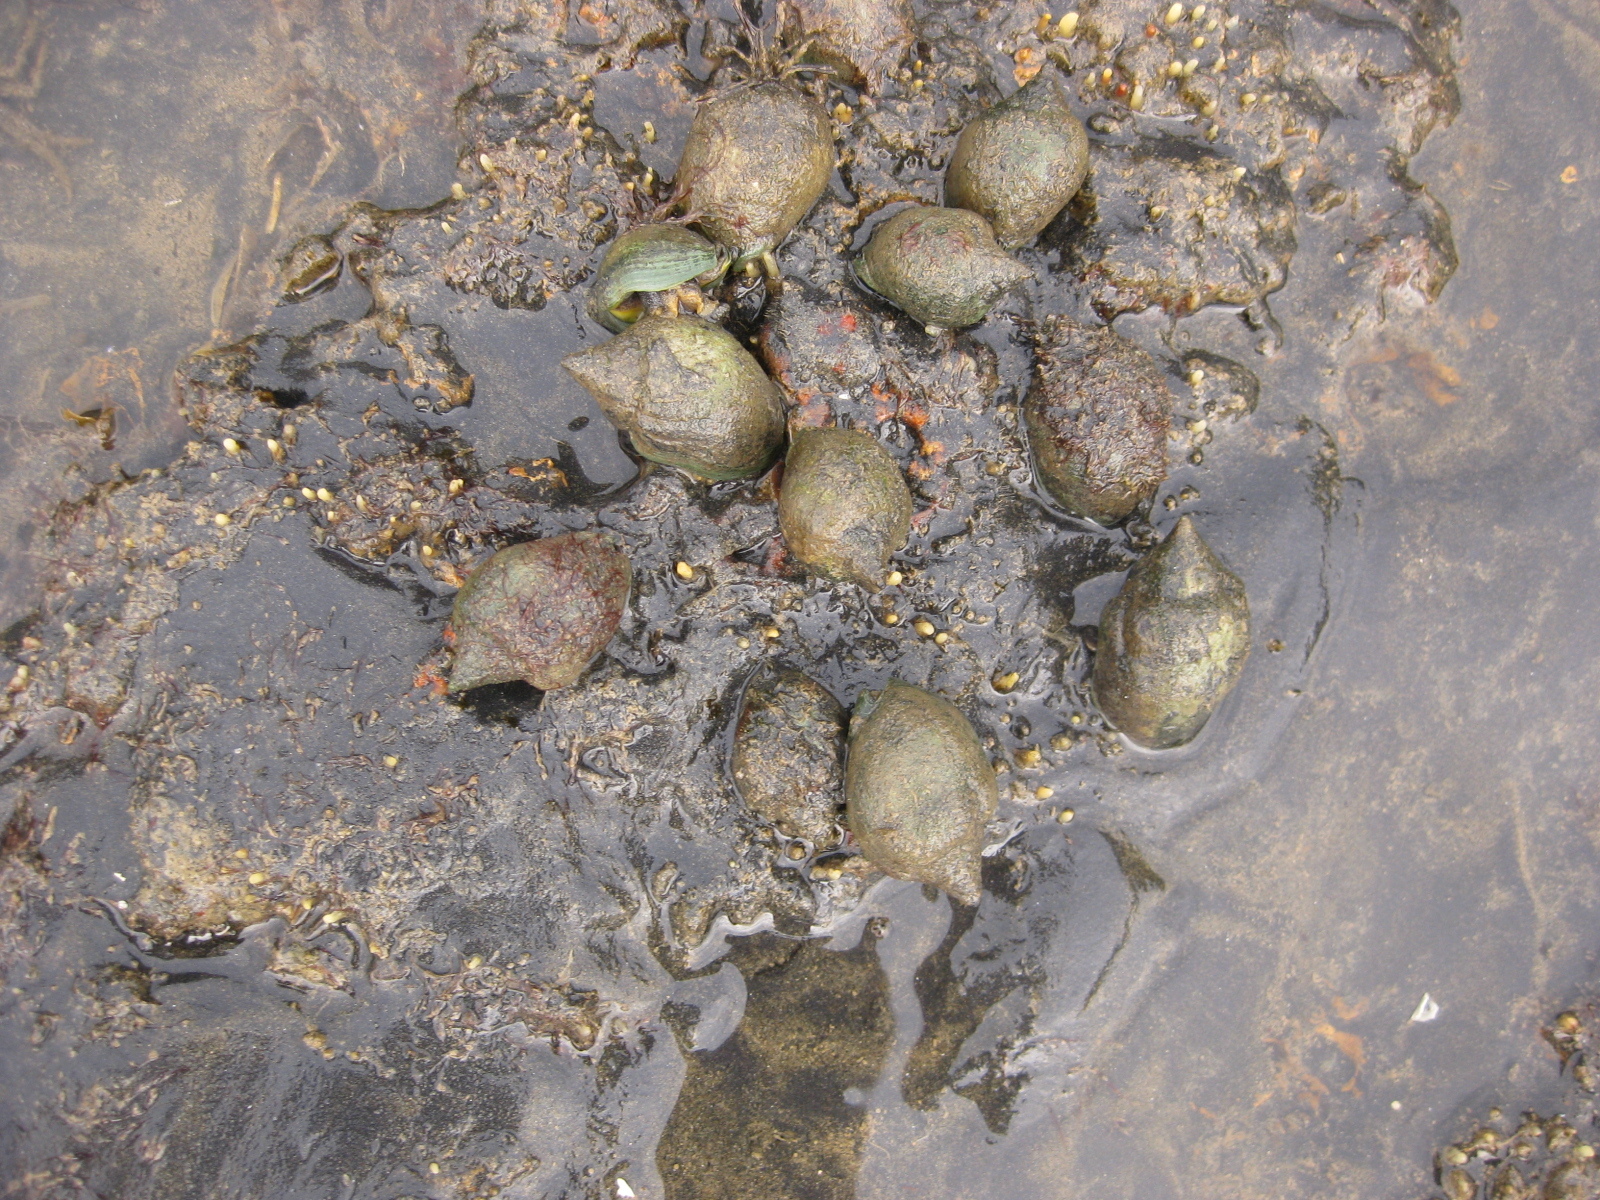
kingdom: Animalia
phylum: Mollusca
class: Gastropoda
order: Neogastropoda
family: Cominellidae
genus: Cominella
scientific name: Cominella adspersa
